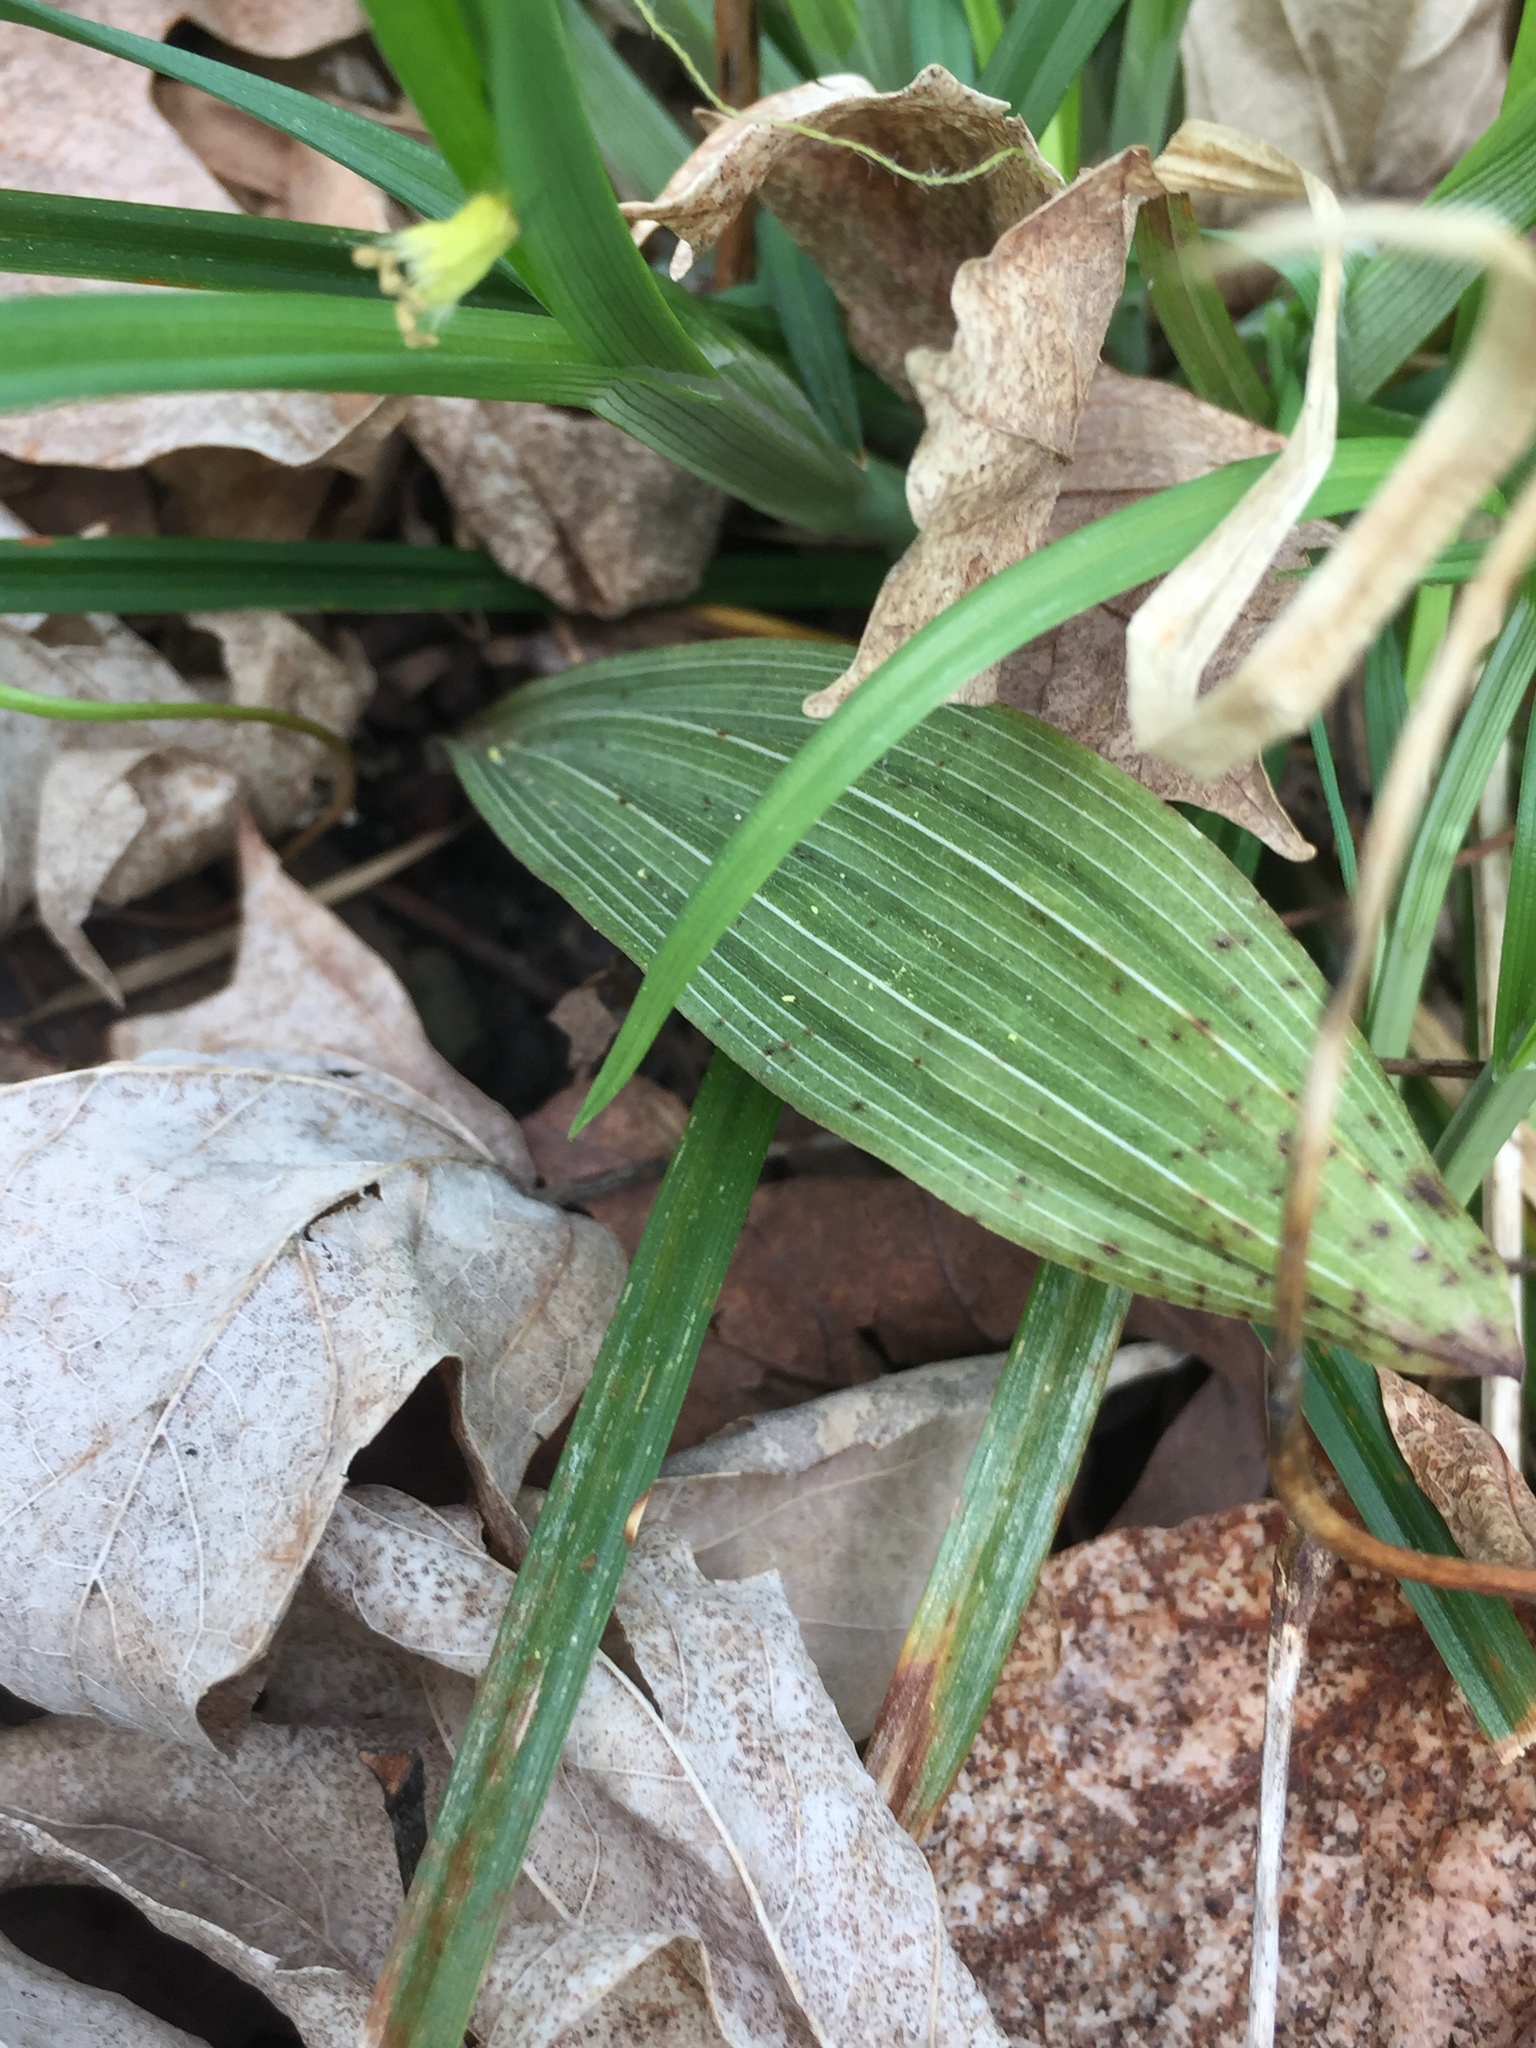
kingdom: Plantae
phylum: Tracheophyta
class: Liliopsida
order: Asparagales
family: Orchidaceae
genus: Aplectrum
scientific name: Aplectrum hyemale
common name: Adam-and-eve
